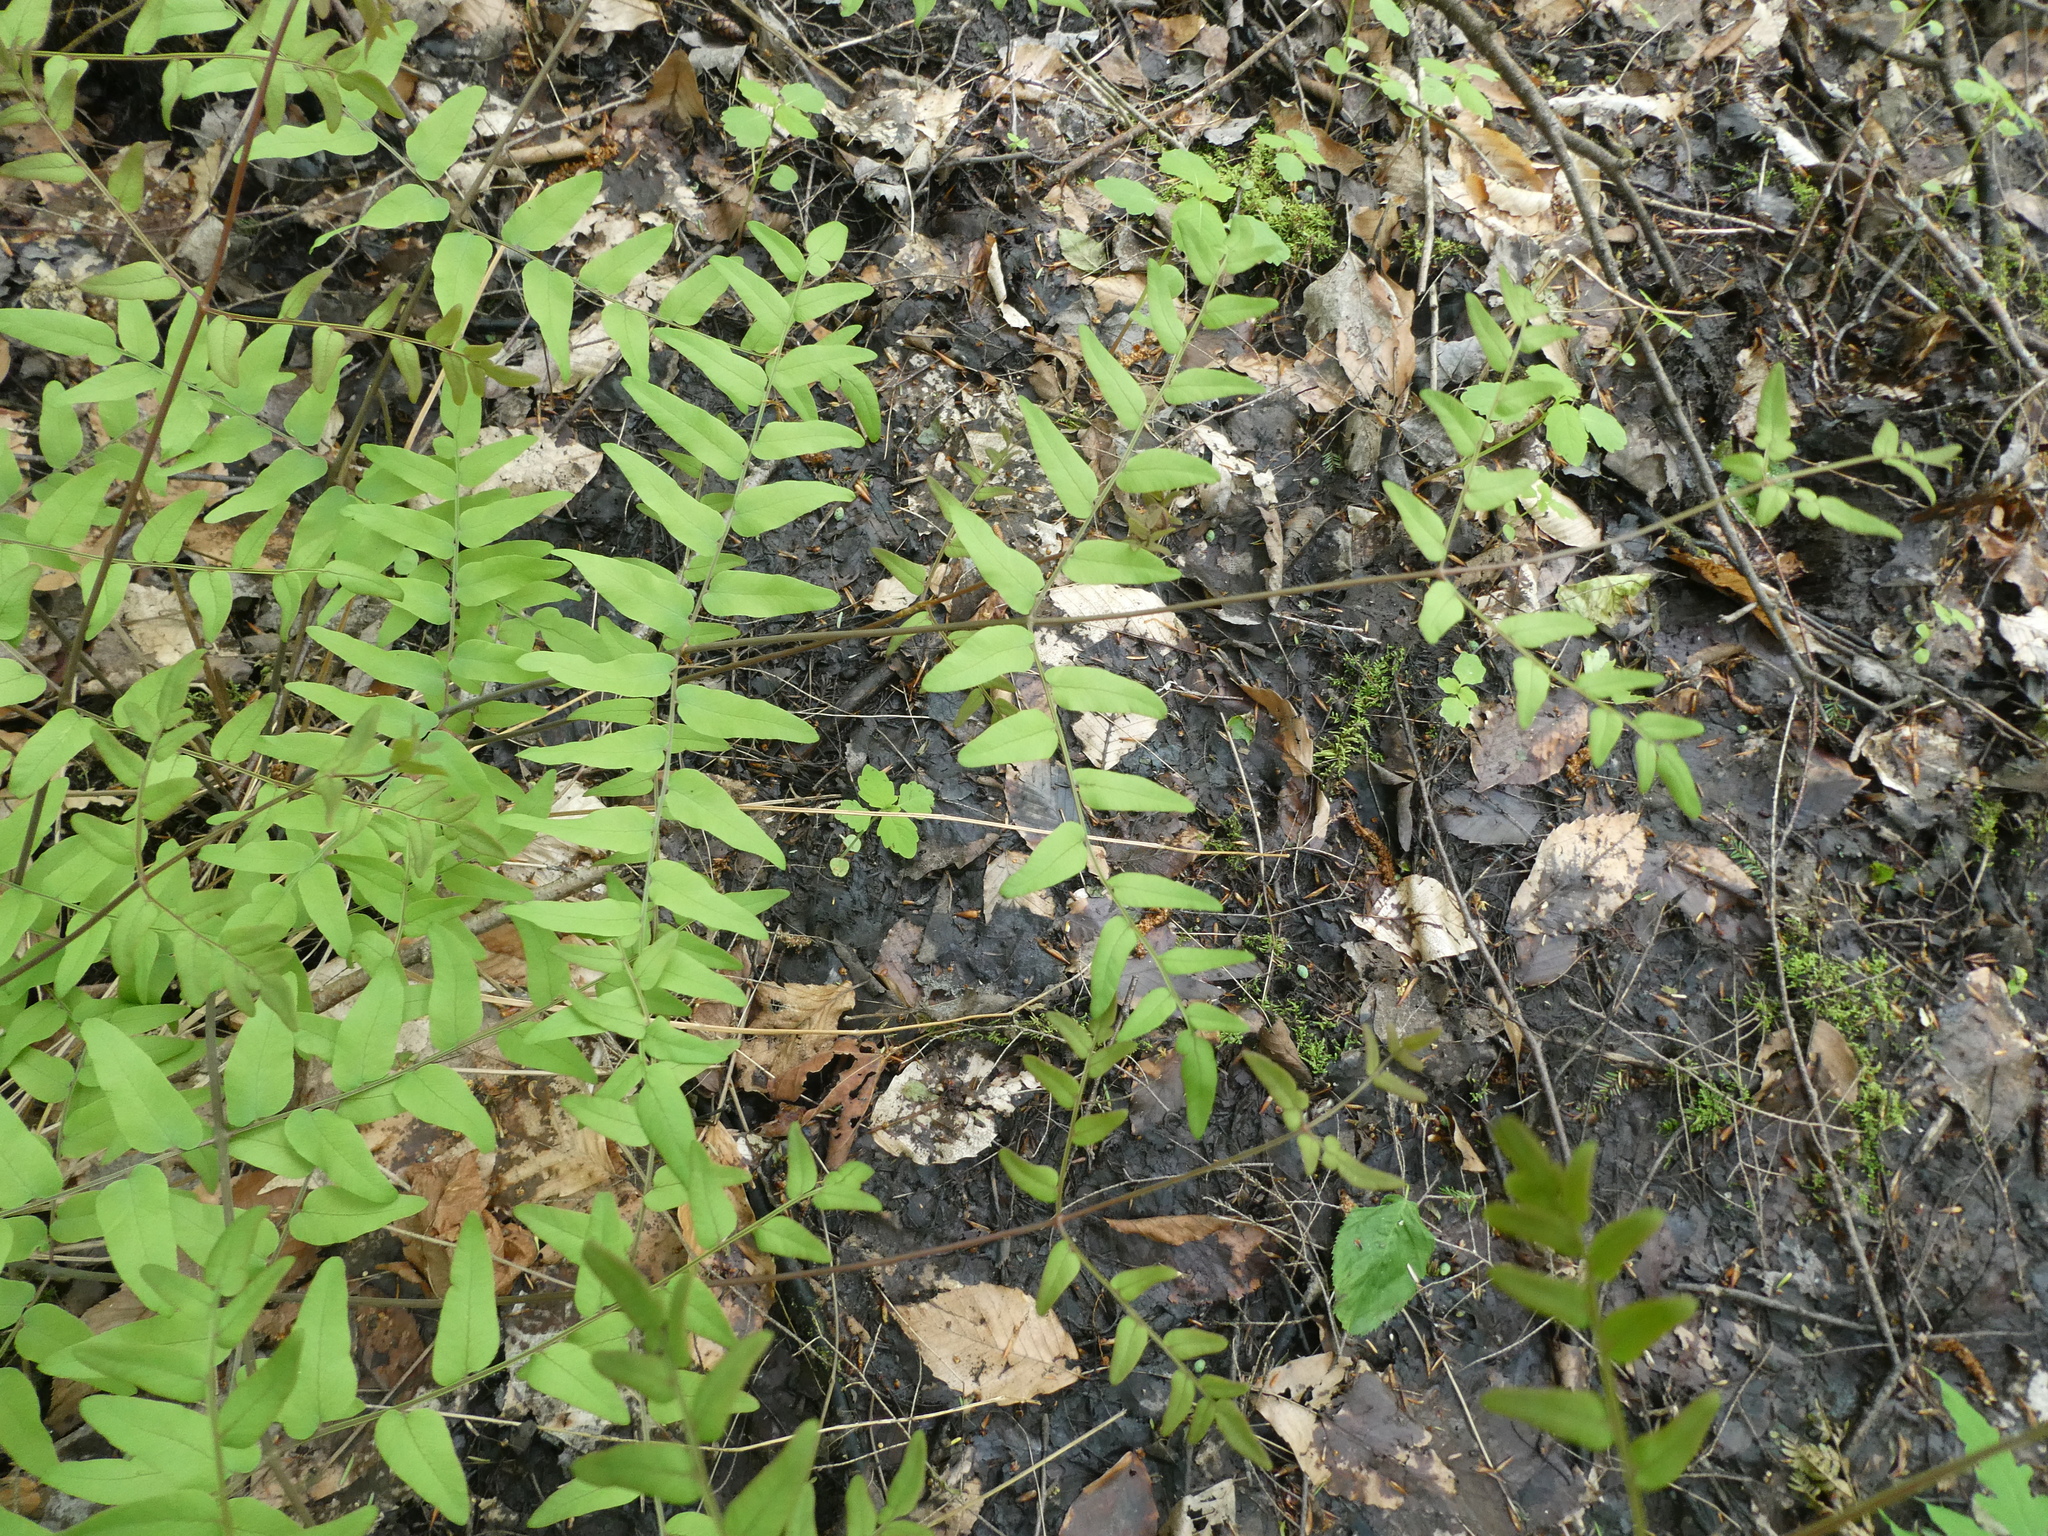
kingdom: Plantae
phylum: Tracheophyta
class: Polypodiopsida
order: Osmundales
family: Osmundaceae
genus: Osmunda
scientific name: Osmunda spectabilis
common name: American royal fern
